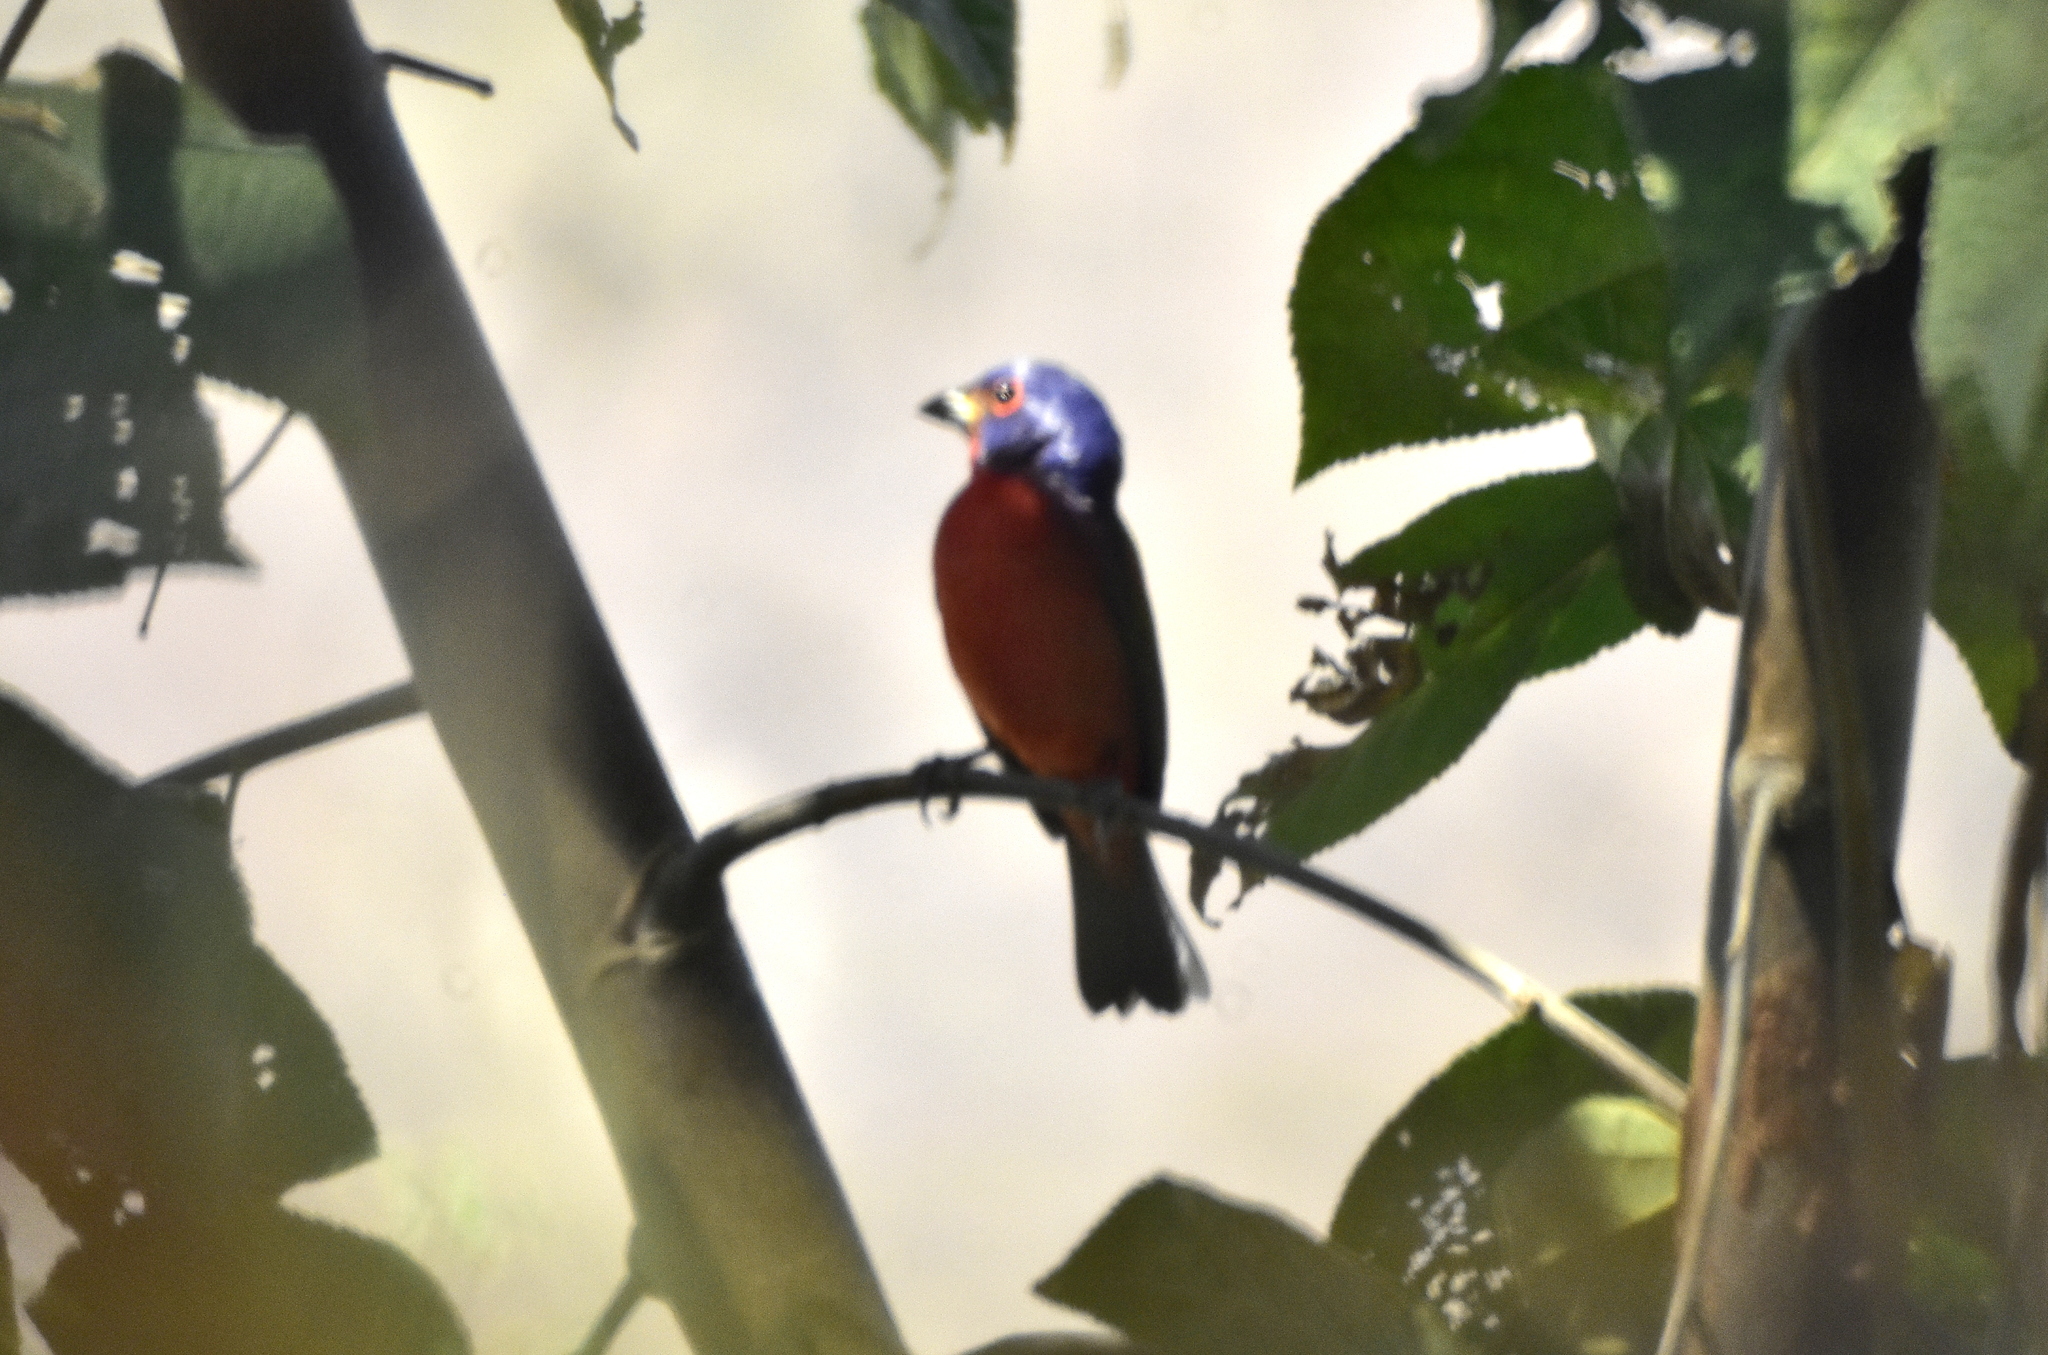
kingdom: Animalia
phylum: Chordata
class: Aves
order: Passeriformes
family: Cardinalidae
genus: Passerina
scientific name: Passerina ciris
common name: Painted bunting
